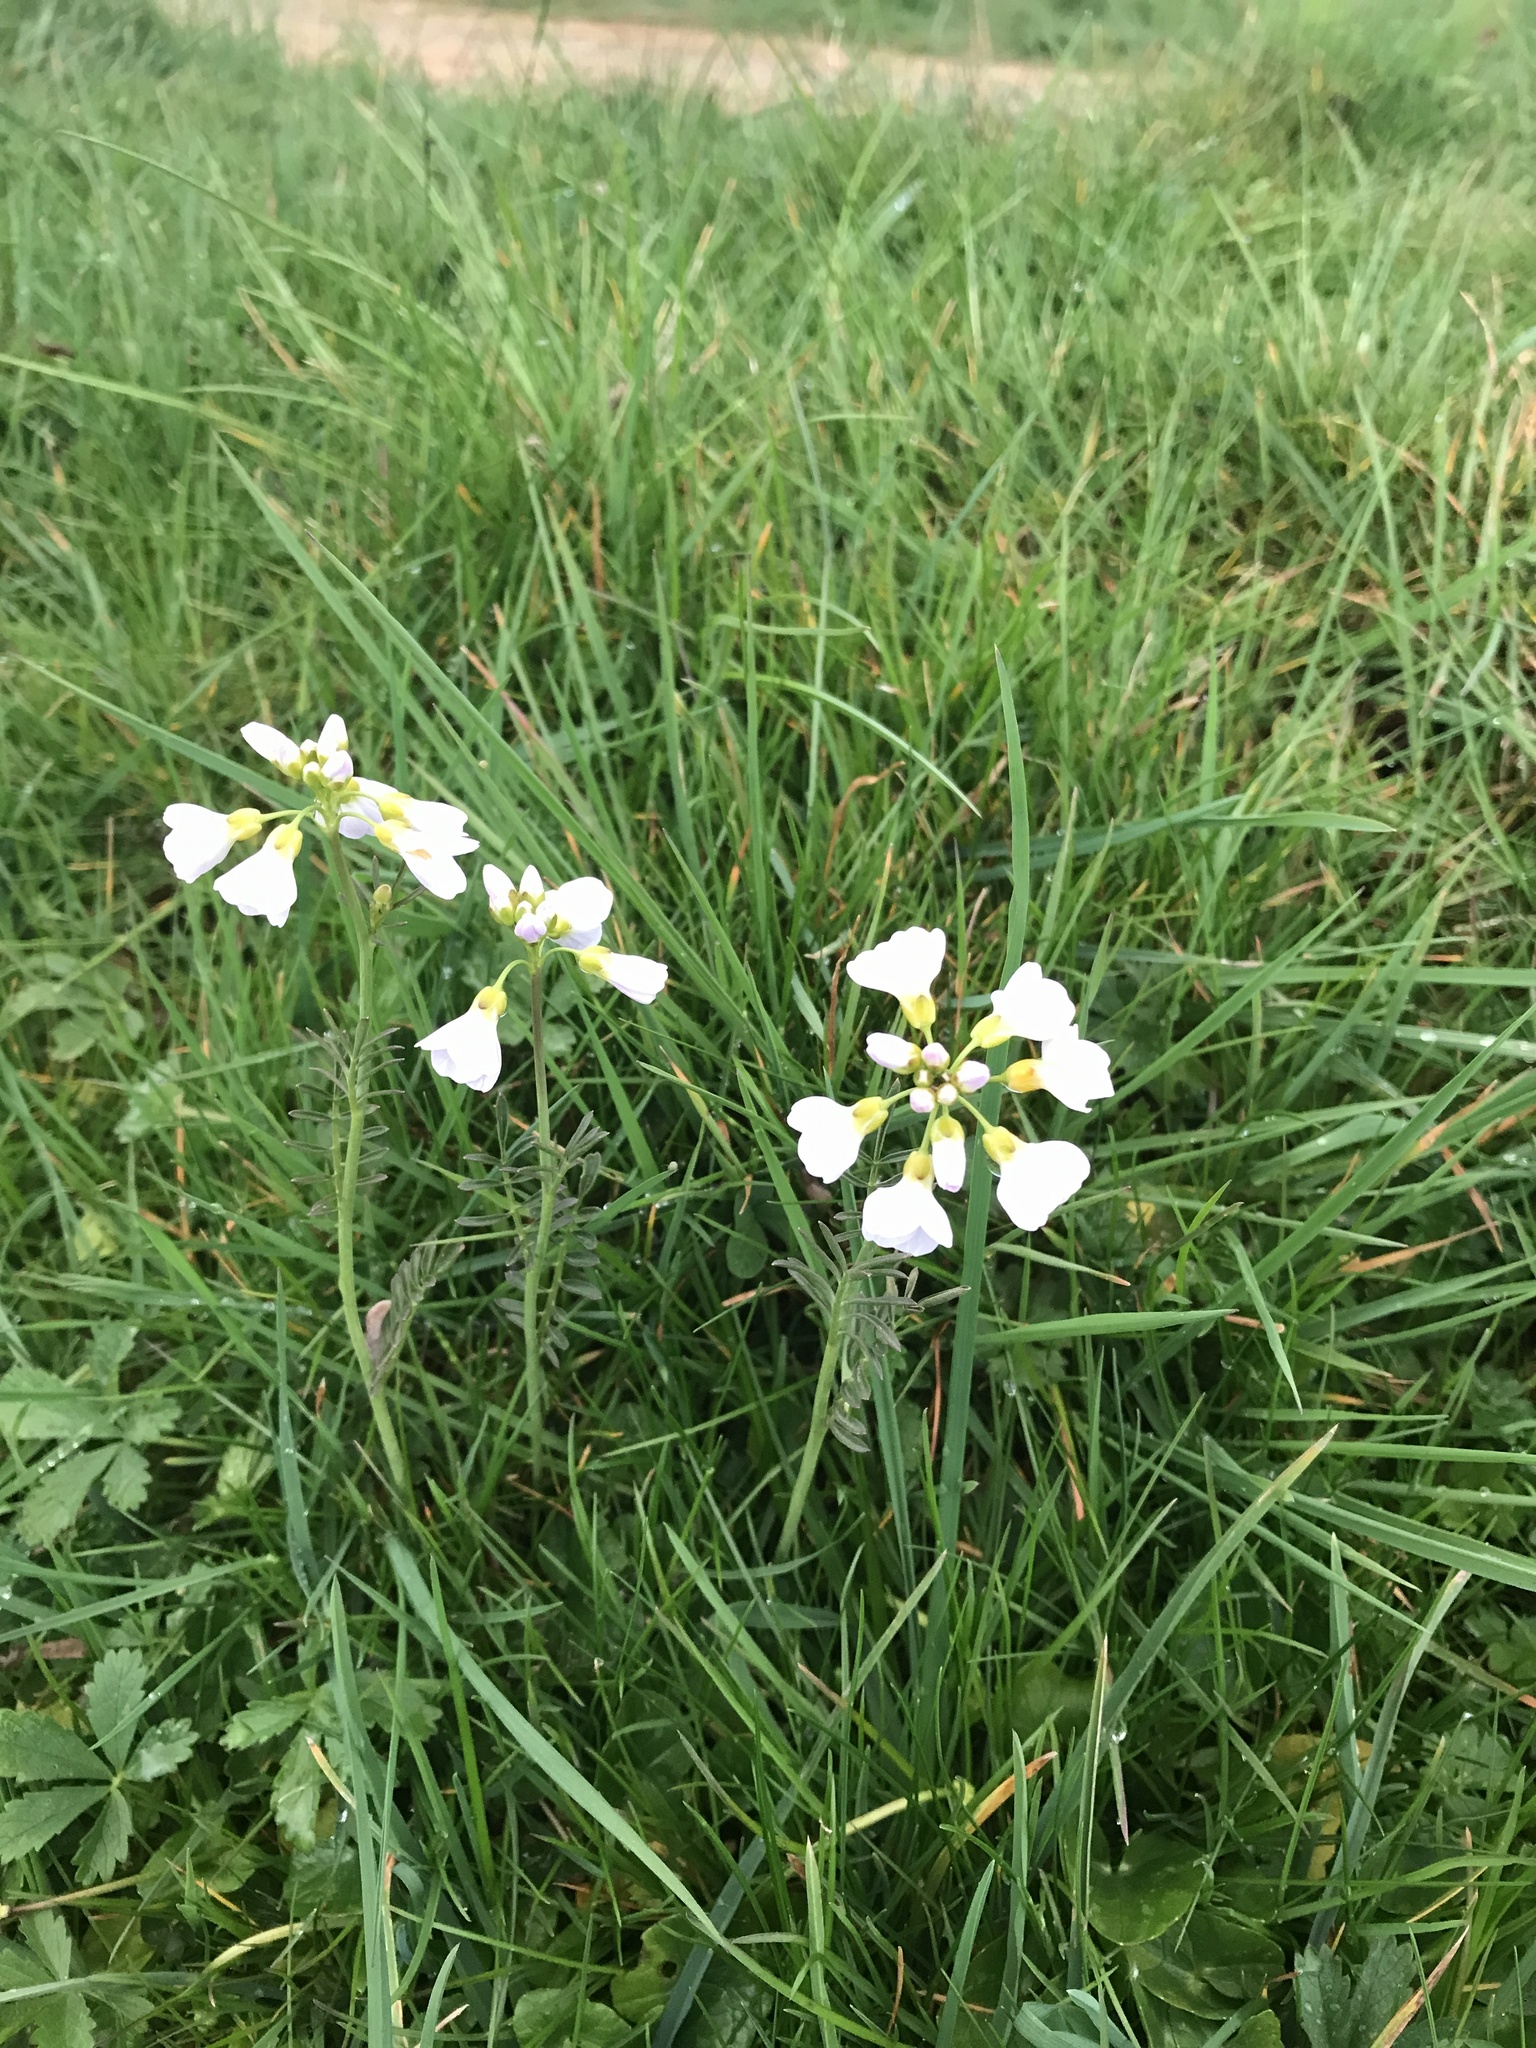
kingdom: Plantae
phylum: Tracheophyta
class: Magnoliopsida
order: Brassicales
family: Brassicaceae
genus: Cardamine
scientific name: Cardamine pratensis
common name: Cuckoo flower
